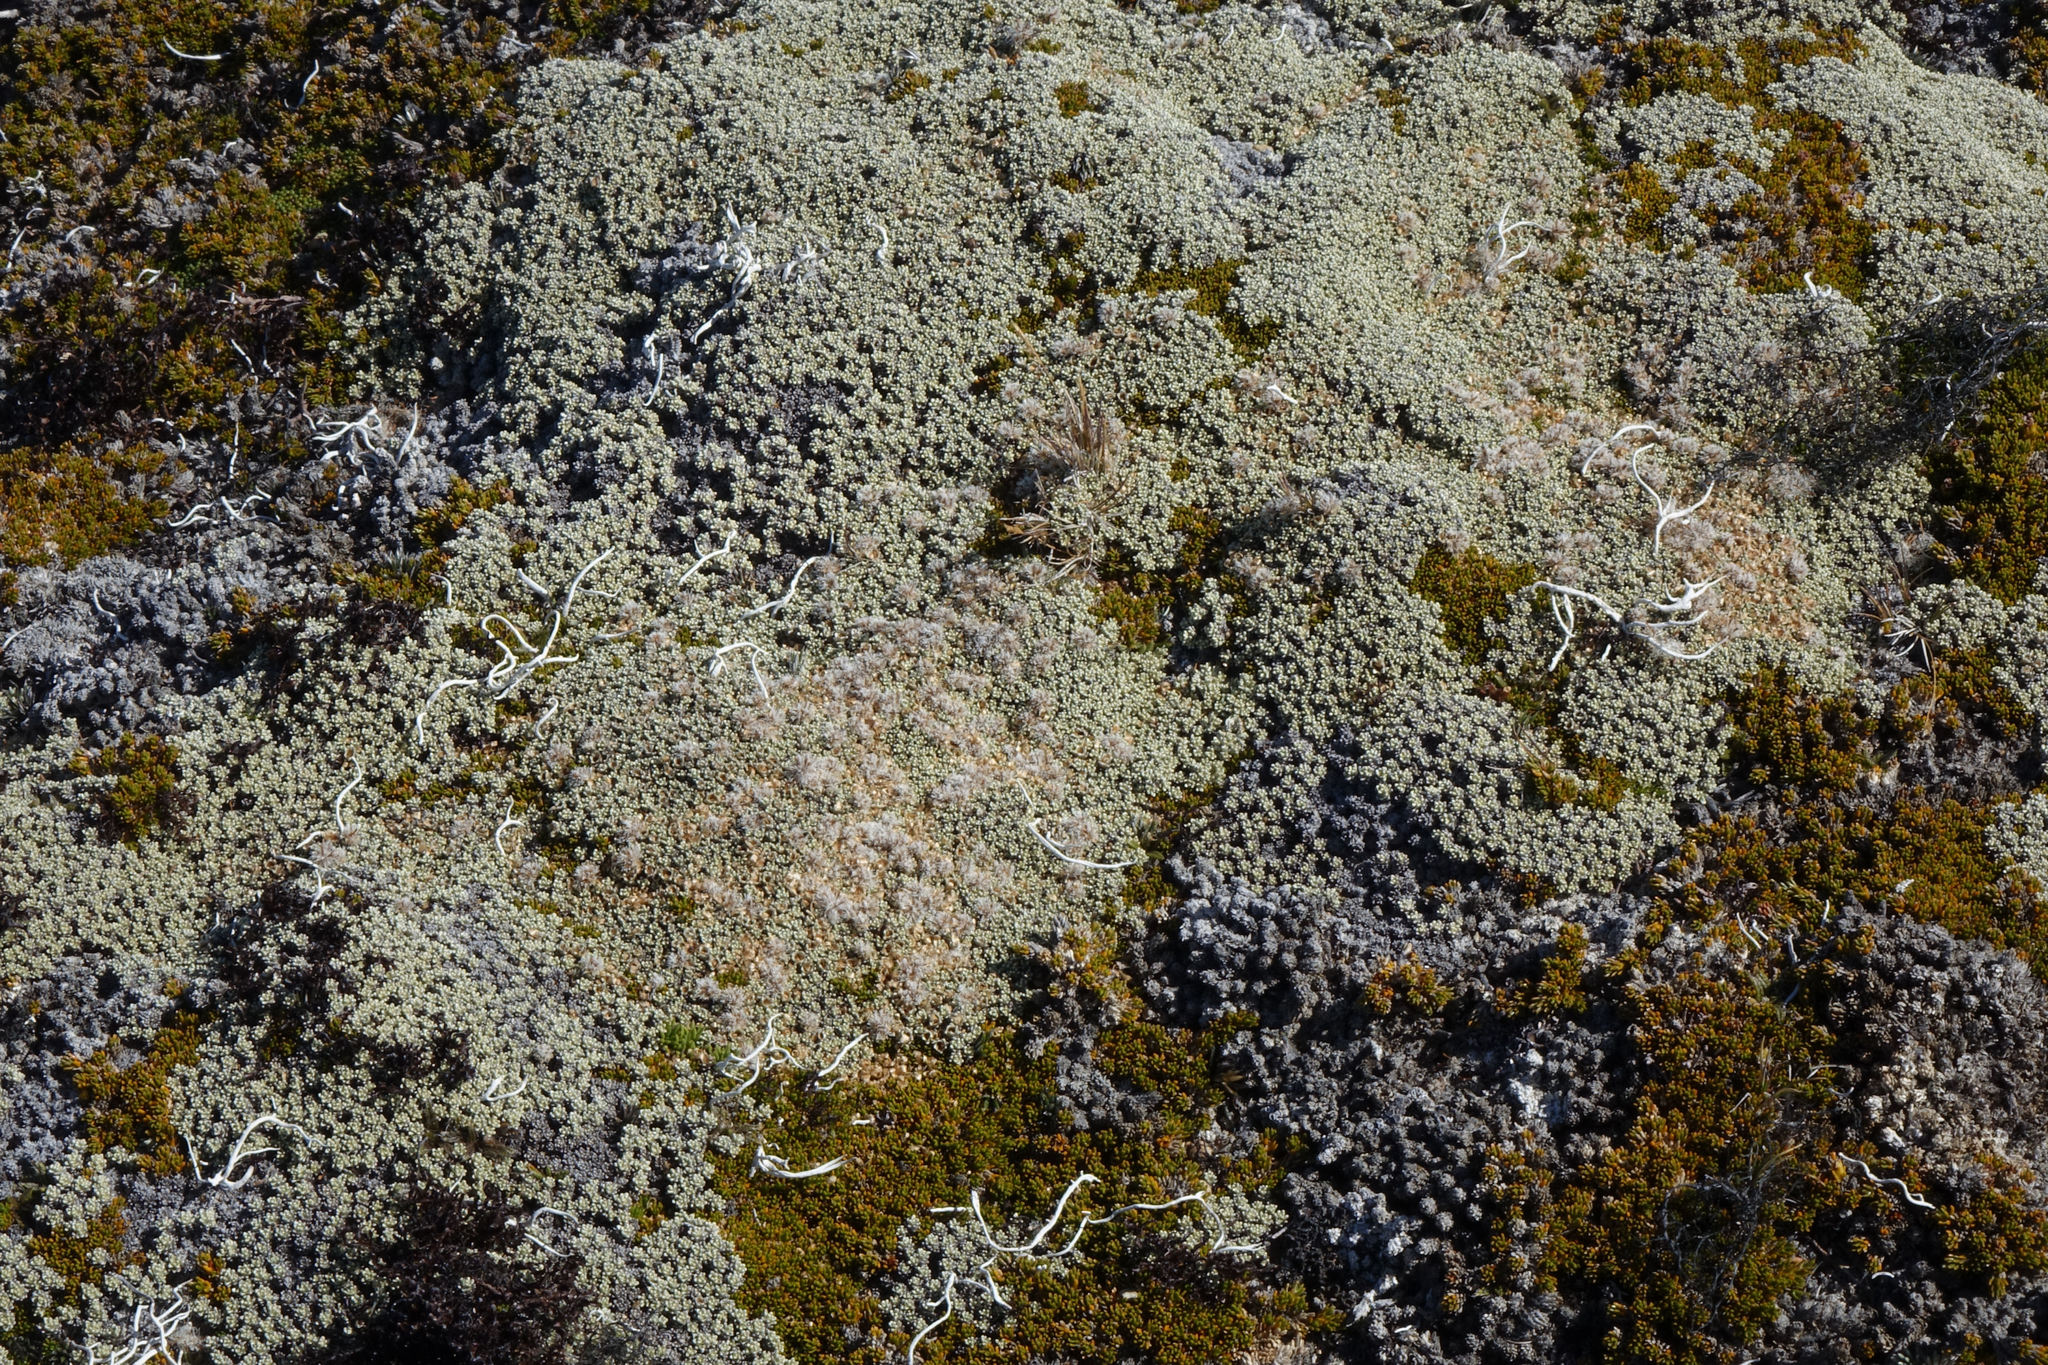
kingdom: Plantae
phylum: Tracheophyta
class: Magnoliopsida
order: Asterales
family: Asteraceae
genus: Raoulia
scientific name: Raoulia hectorii
